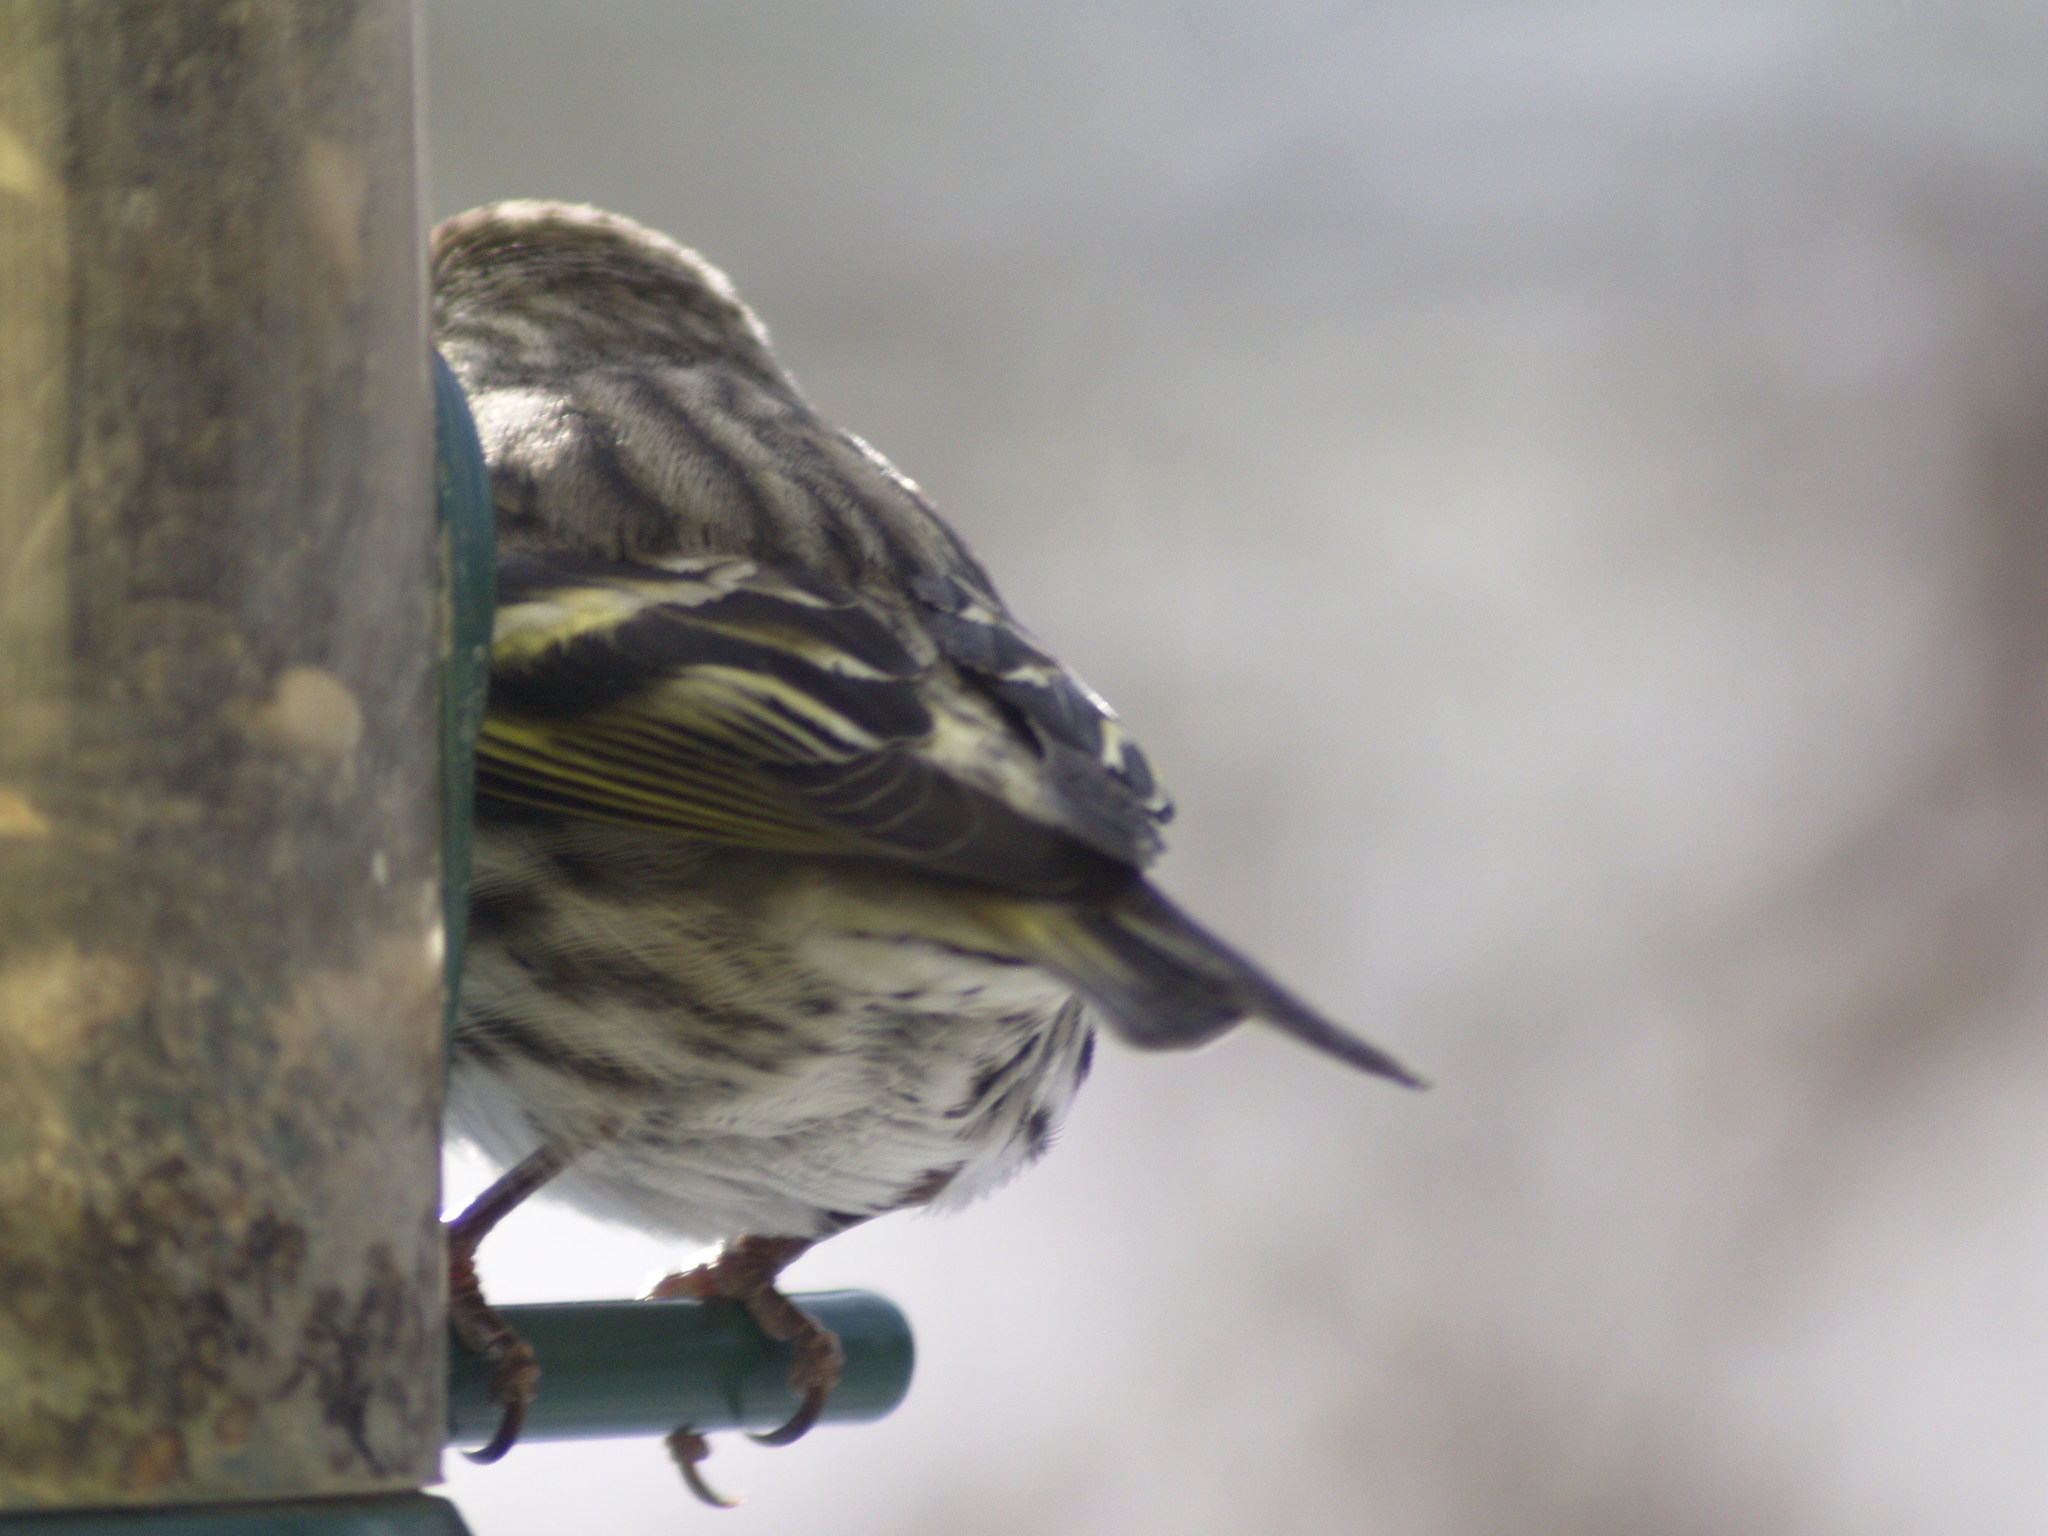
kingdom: Animalia
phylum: Chordata
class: Aves
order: Passeriformes
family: Fringillidae
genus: Spinus
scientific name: Spinus pinus
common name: Pine siskin
